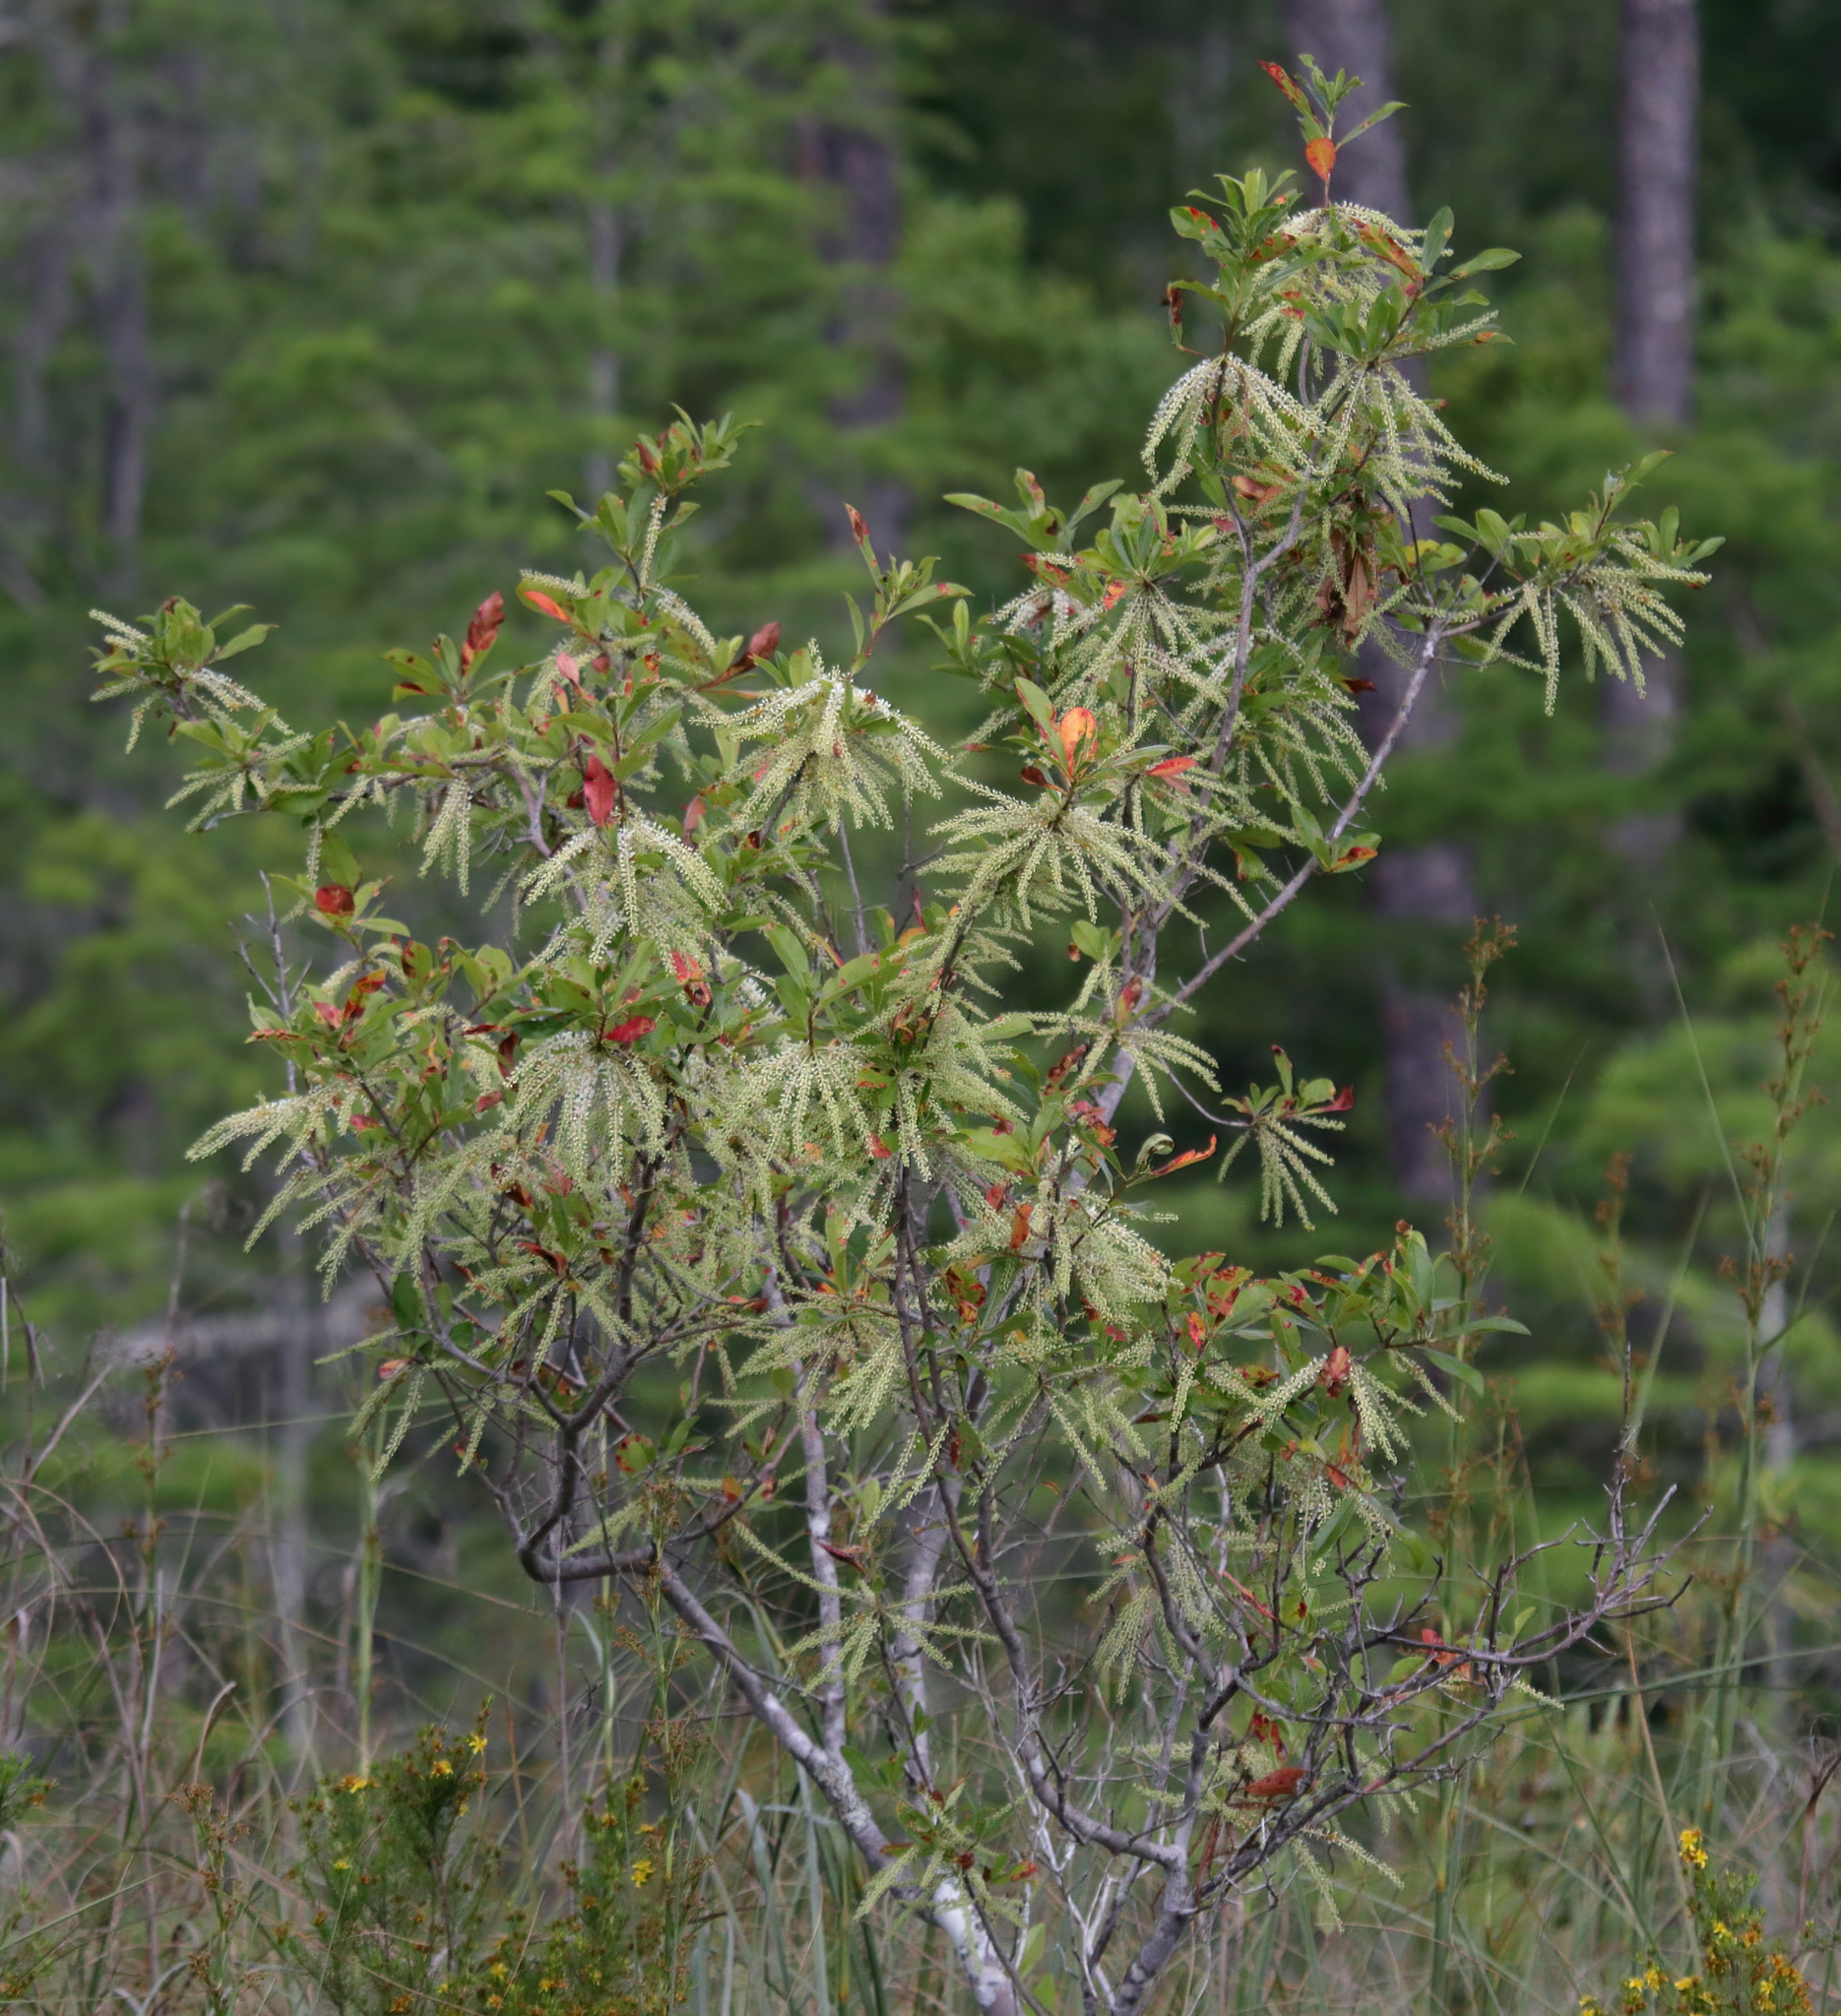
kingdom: Plantae
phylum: Tracheophyta
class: Magnoliopsida
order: Ericales
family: Cyrillaceae
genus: Cyrilla
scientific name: Cyrilla racemiflora
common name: Black titi
